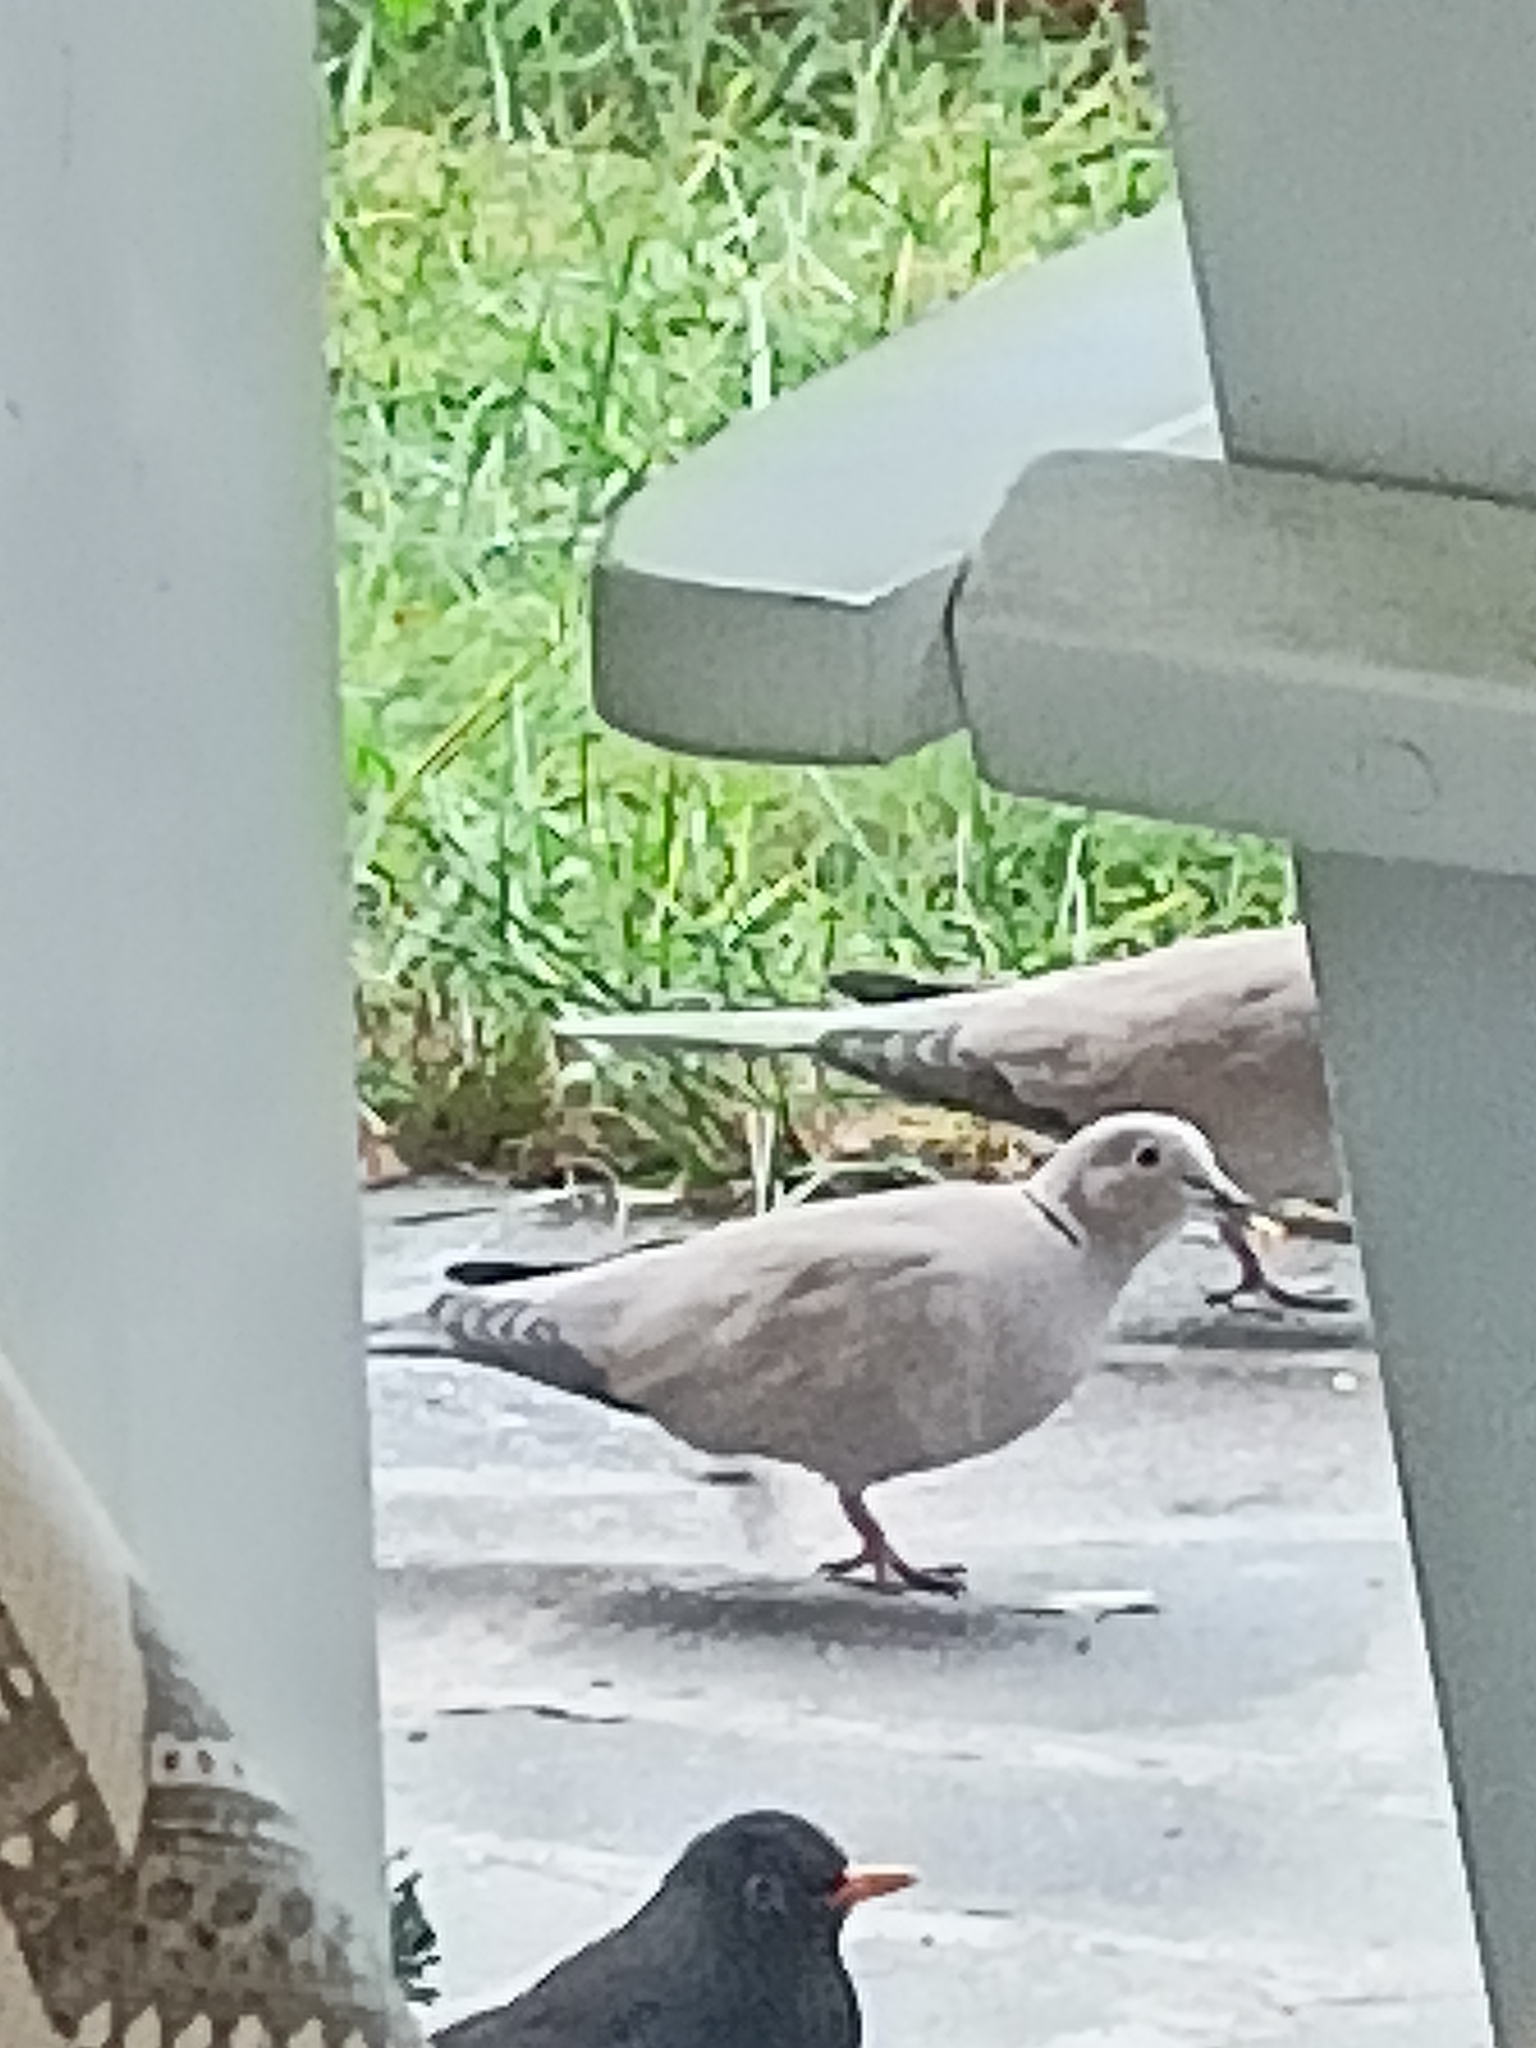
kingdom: Animalia
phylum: Chordata
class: Aves
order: Columbiformes
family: Columbidae
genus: Streptopelia
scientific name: Streptopelia decaocto
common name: Eurasian collared dove
